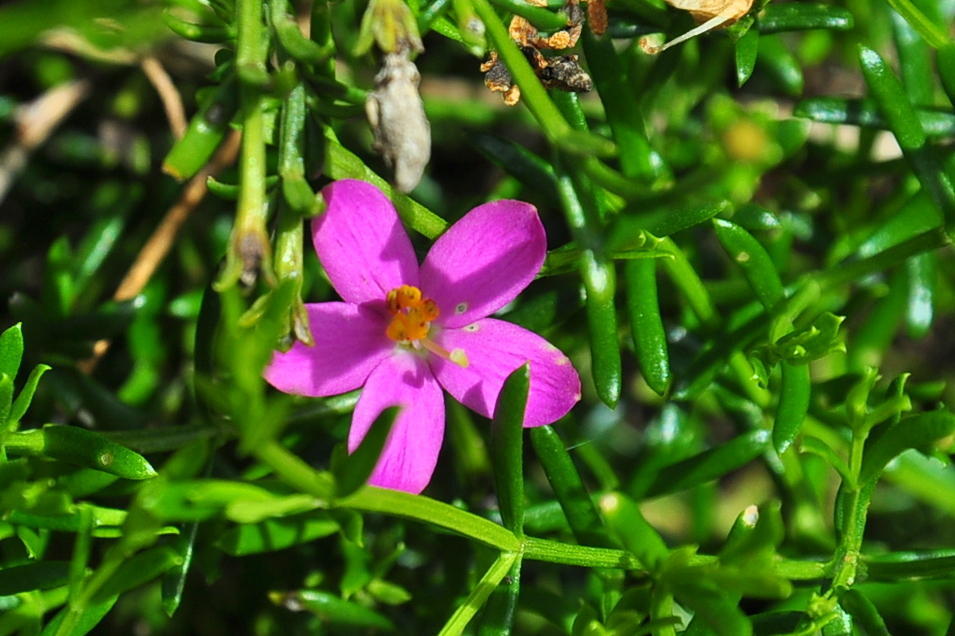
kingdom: Plantae
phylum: Tracheophyta
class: Magnoliopsida
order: Gentianales
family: Gentianaceae
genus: Chironia
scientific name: Chironia baccifera
